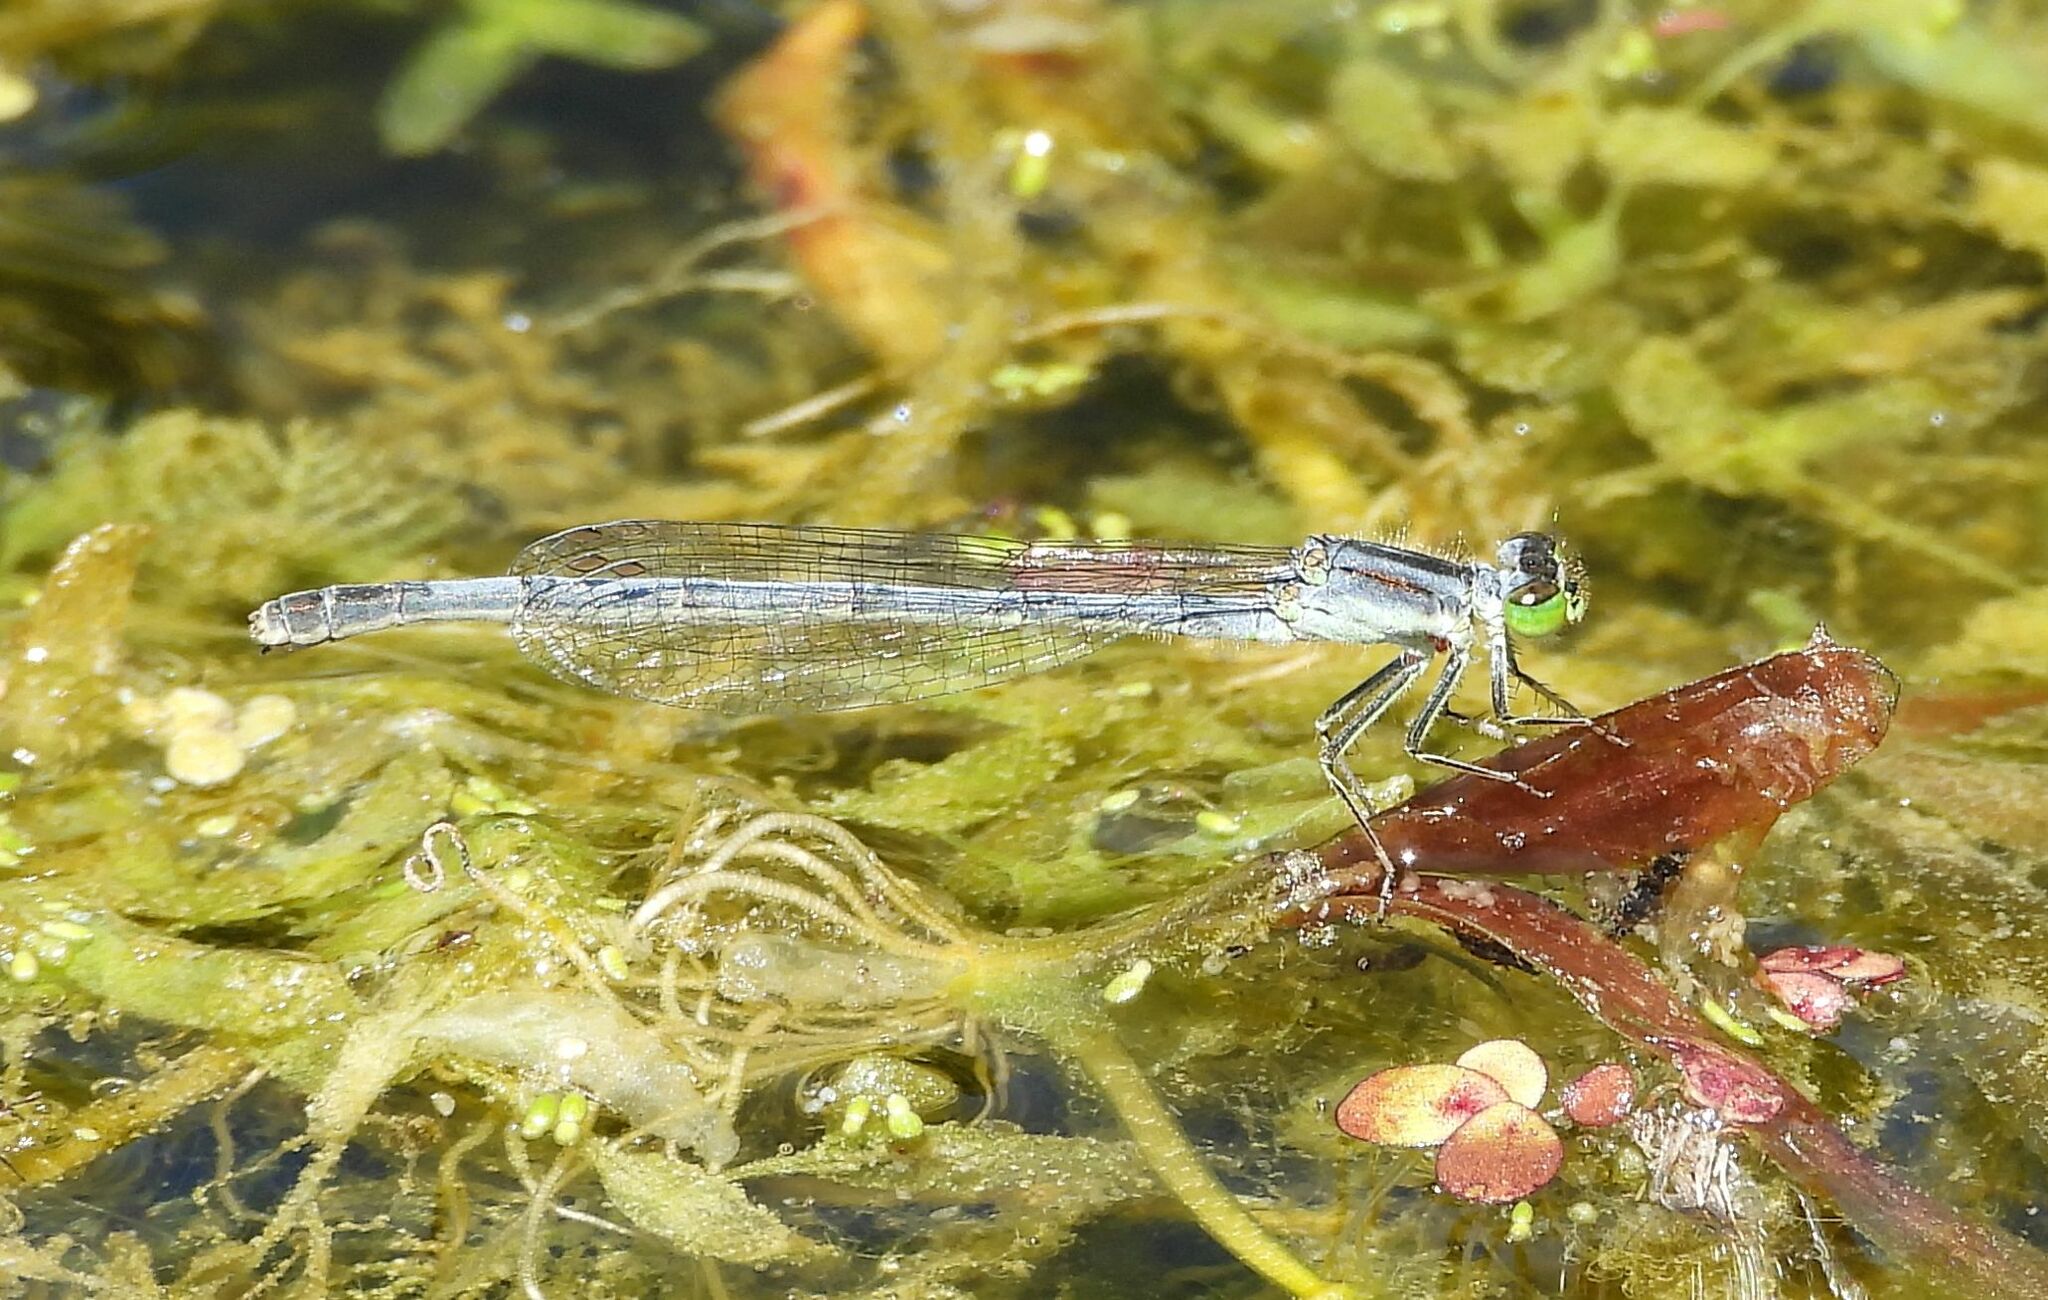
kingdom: Animalia
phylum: Arthropoda
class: Insecta
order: Odonata
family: Coenagrionidae
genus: Ischnura
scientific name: Ischnura verticalis
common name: Eastern forktail
